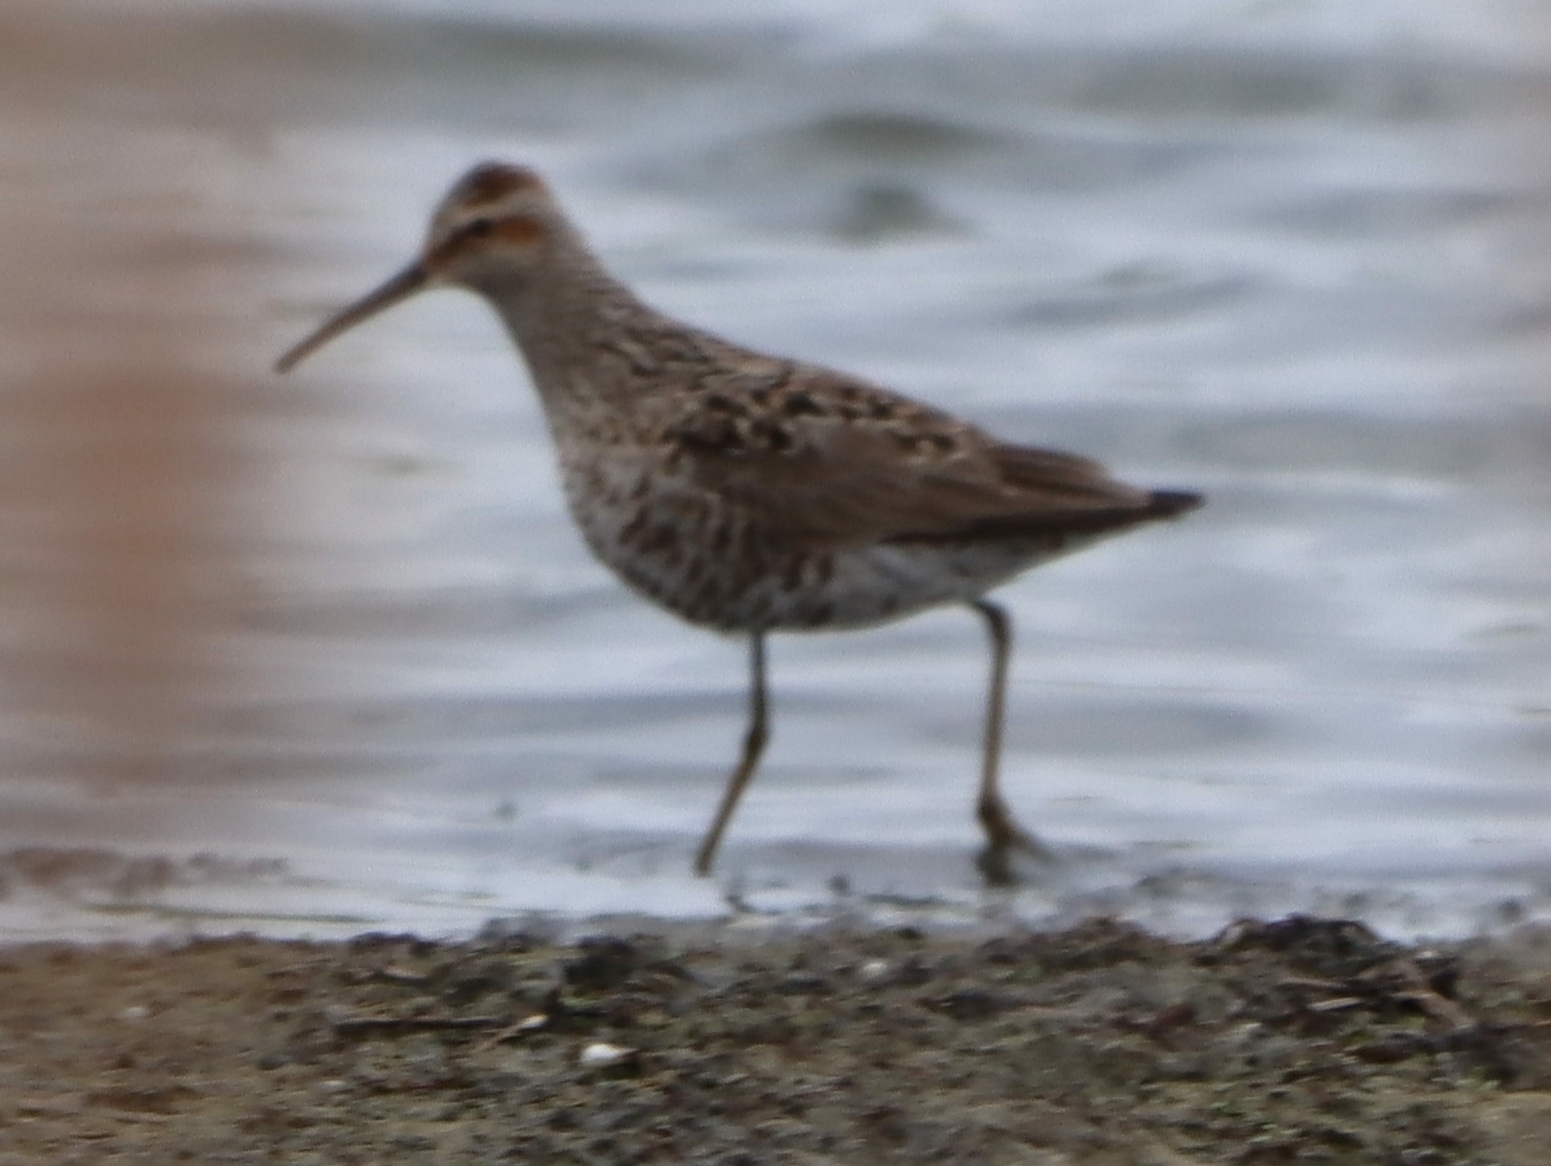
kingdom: Animalia
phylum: Chordata
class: Aves
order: Charadriiformes
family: Scolopacidae
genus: Calidris
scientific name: Calidris himantopus
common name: Stilt sandpiper
